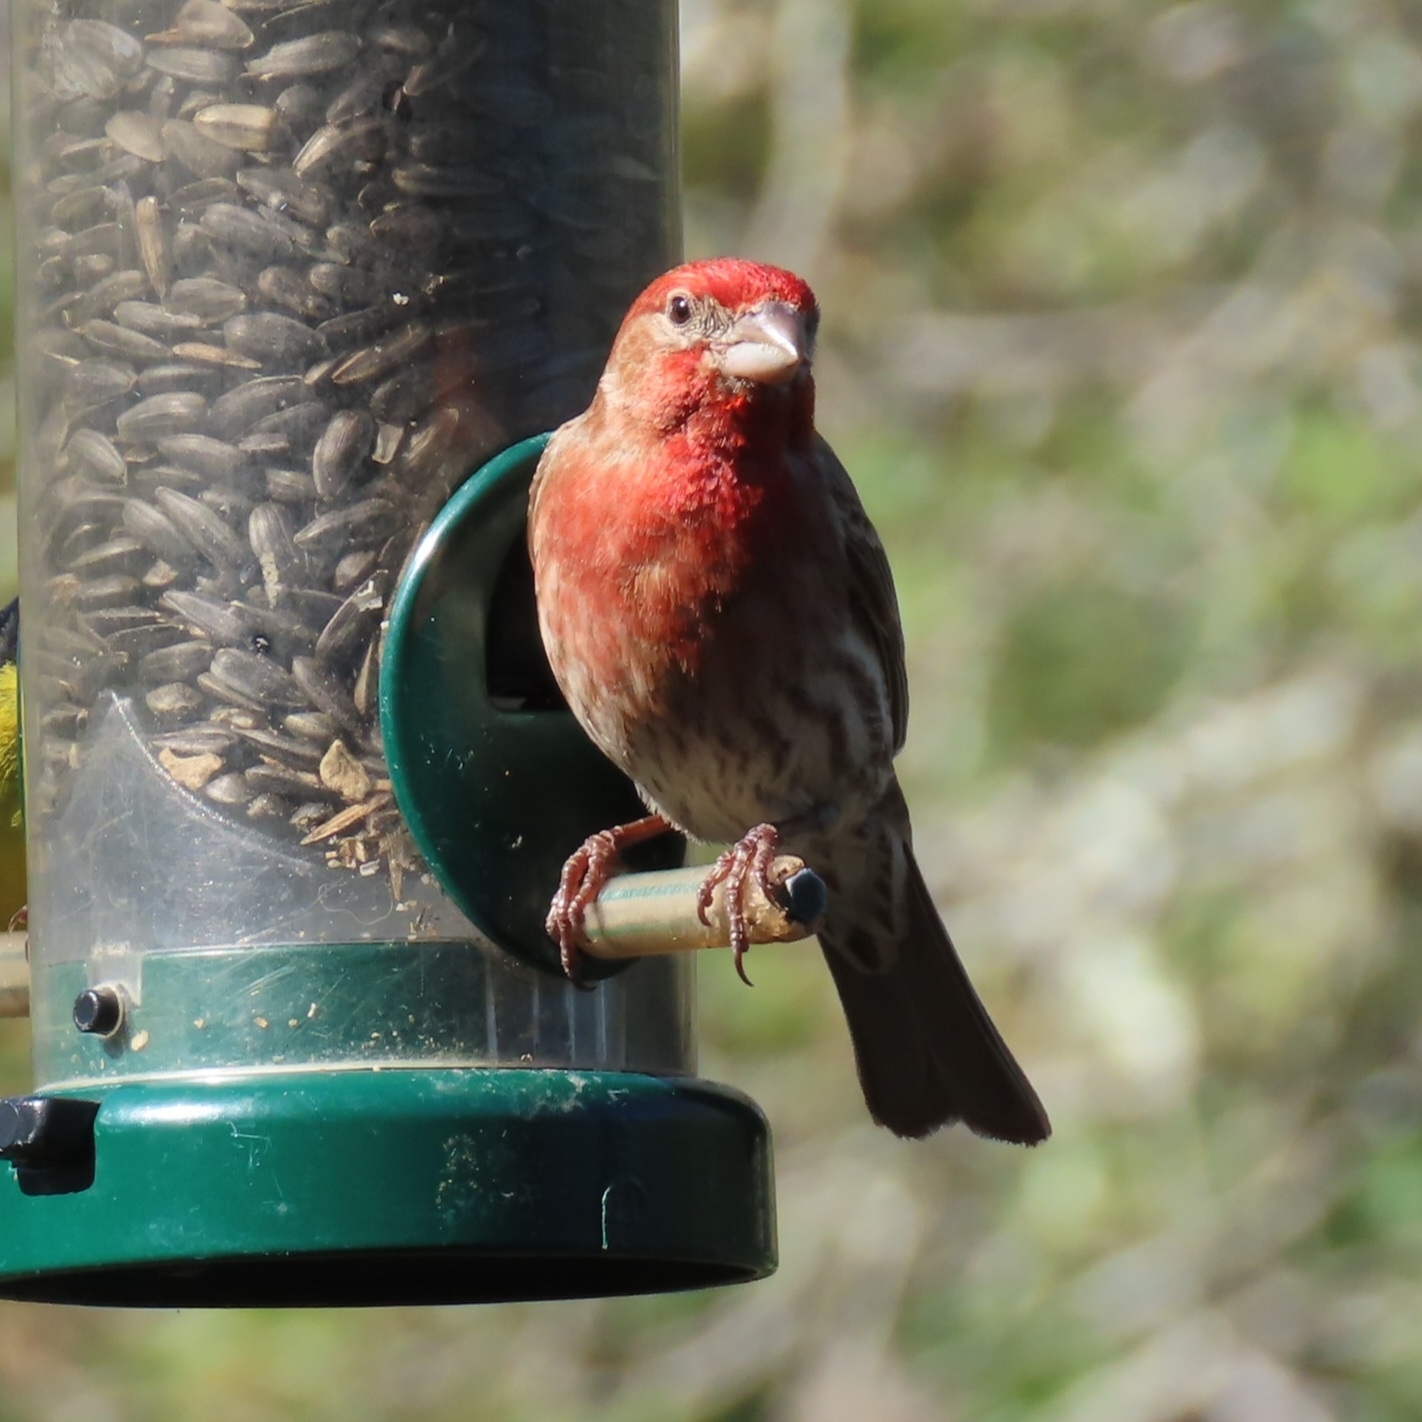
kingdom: Animalia
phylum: Chordata
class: Aves
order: Passeriformes
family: Fringillidae
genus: Haemorhous
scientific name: Haemorhous mexicanus
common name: House finch
